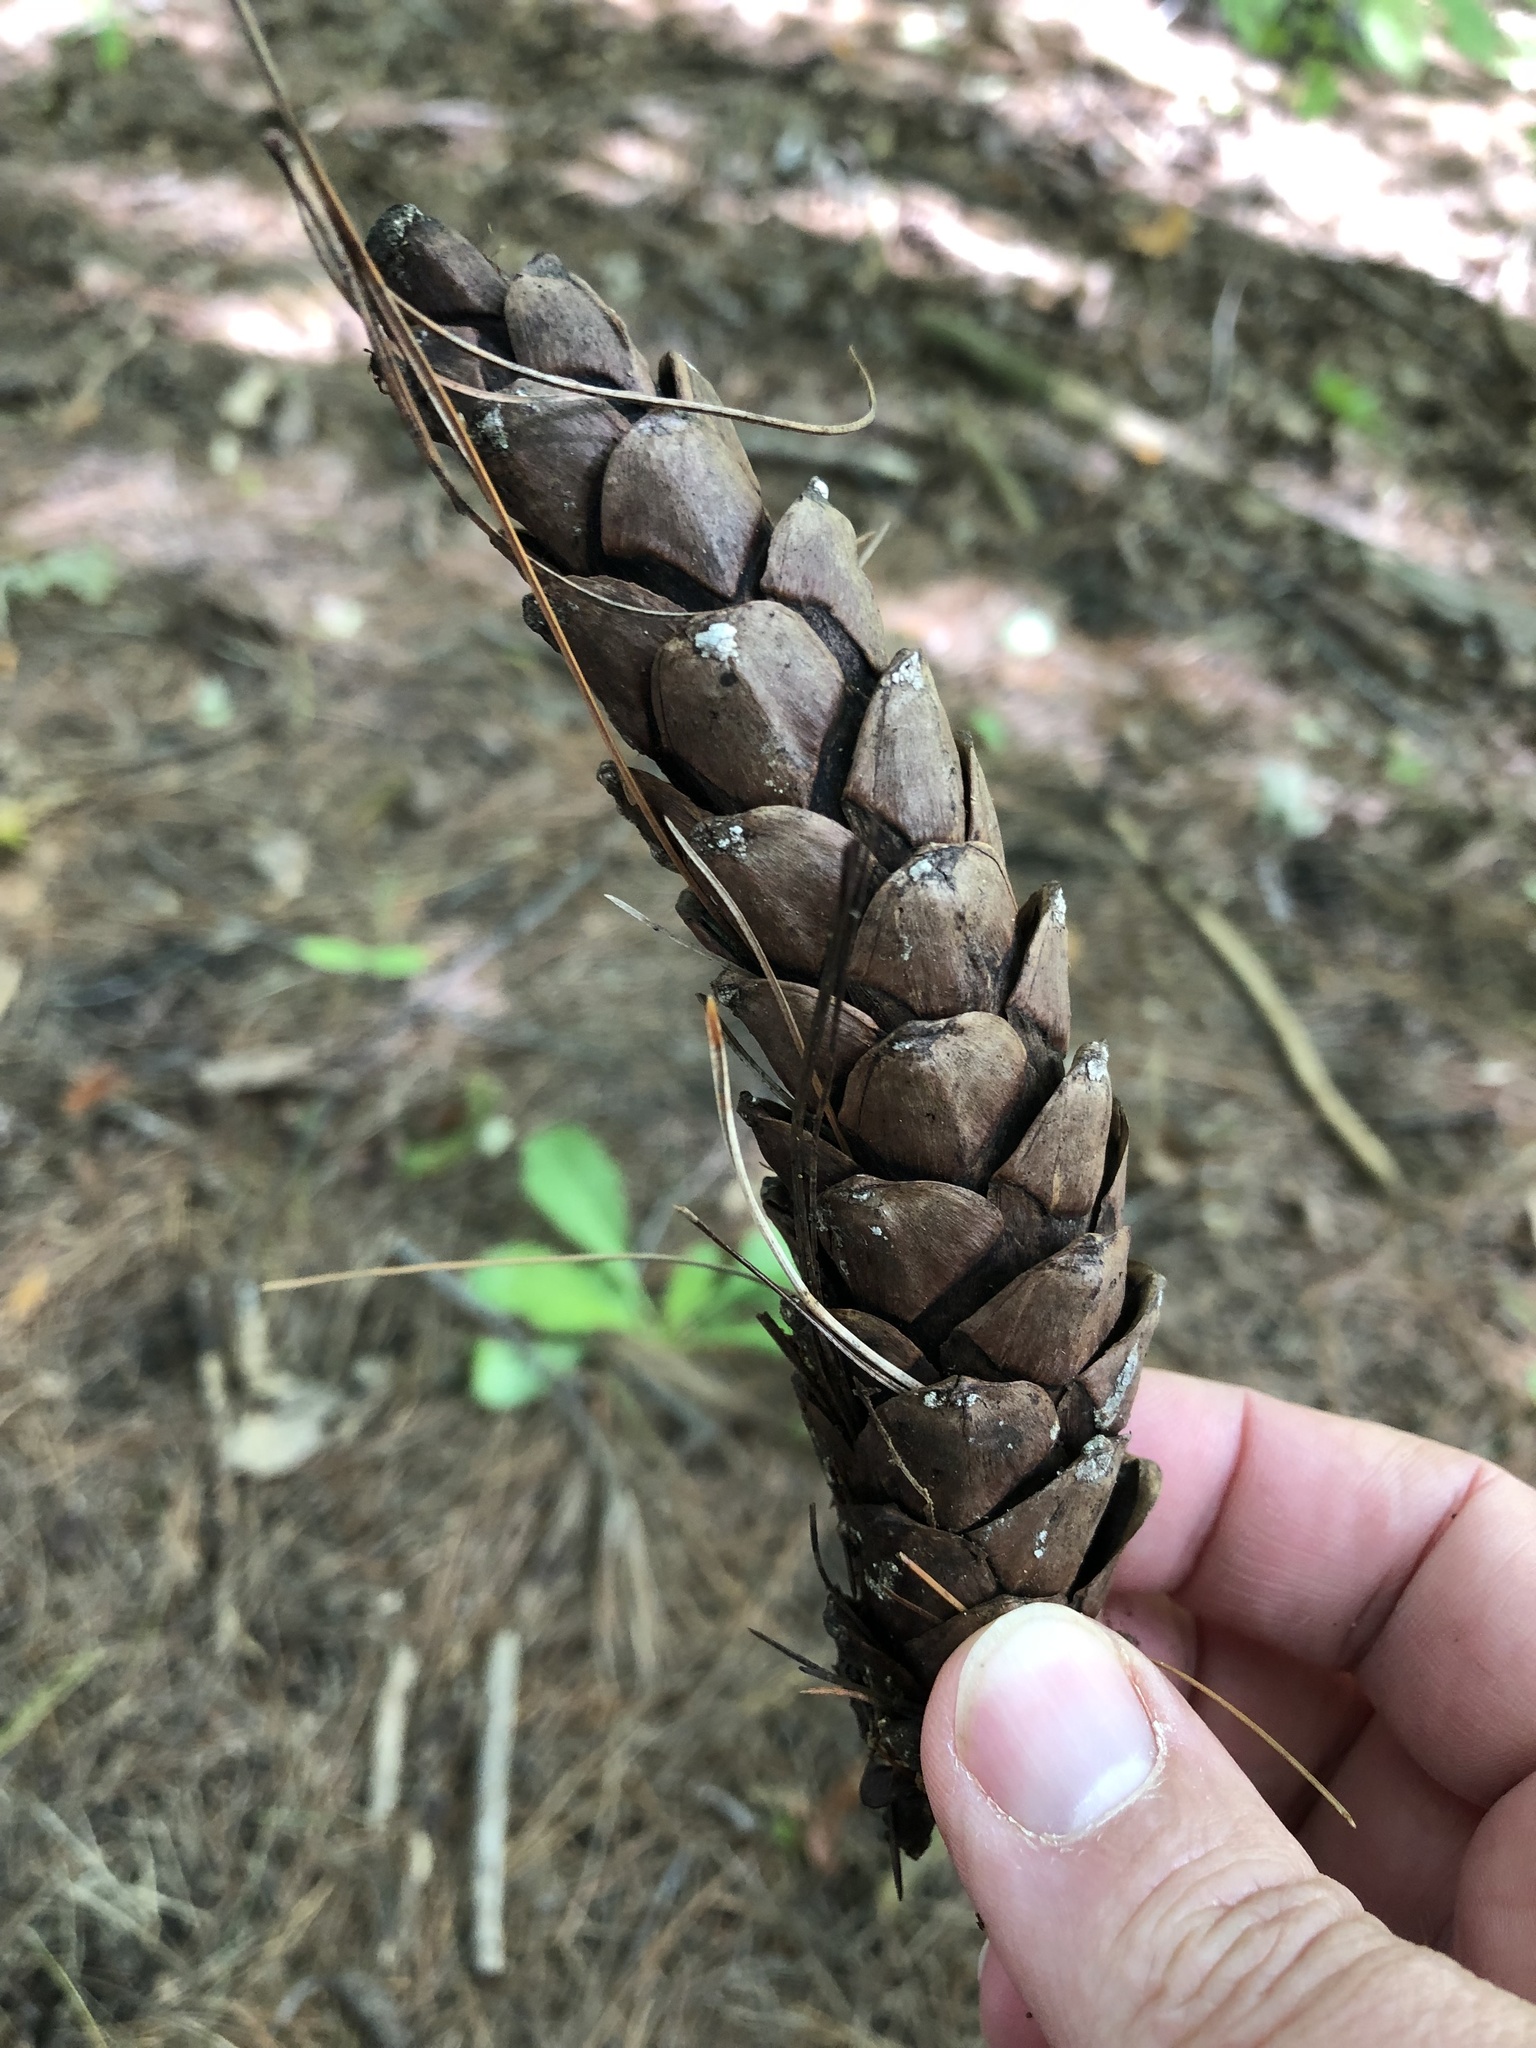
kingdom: Plantae
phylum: Tracheophyta
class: Pinopsida
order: Pinales
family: Pinaceae
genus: Pinus
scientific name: Pinus strobus
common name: Weymouth pine
